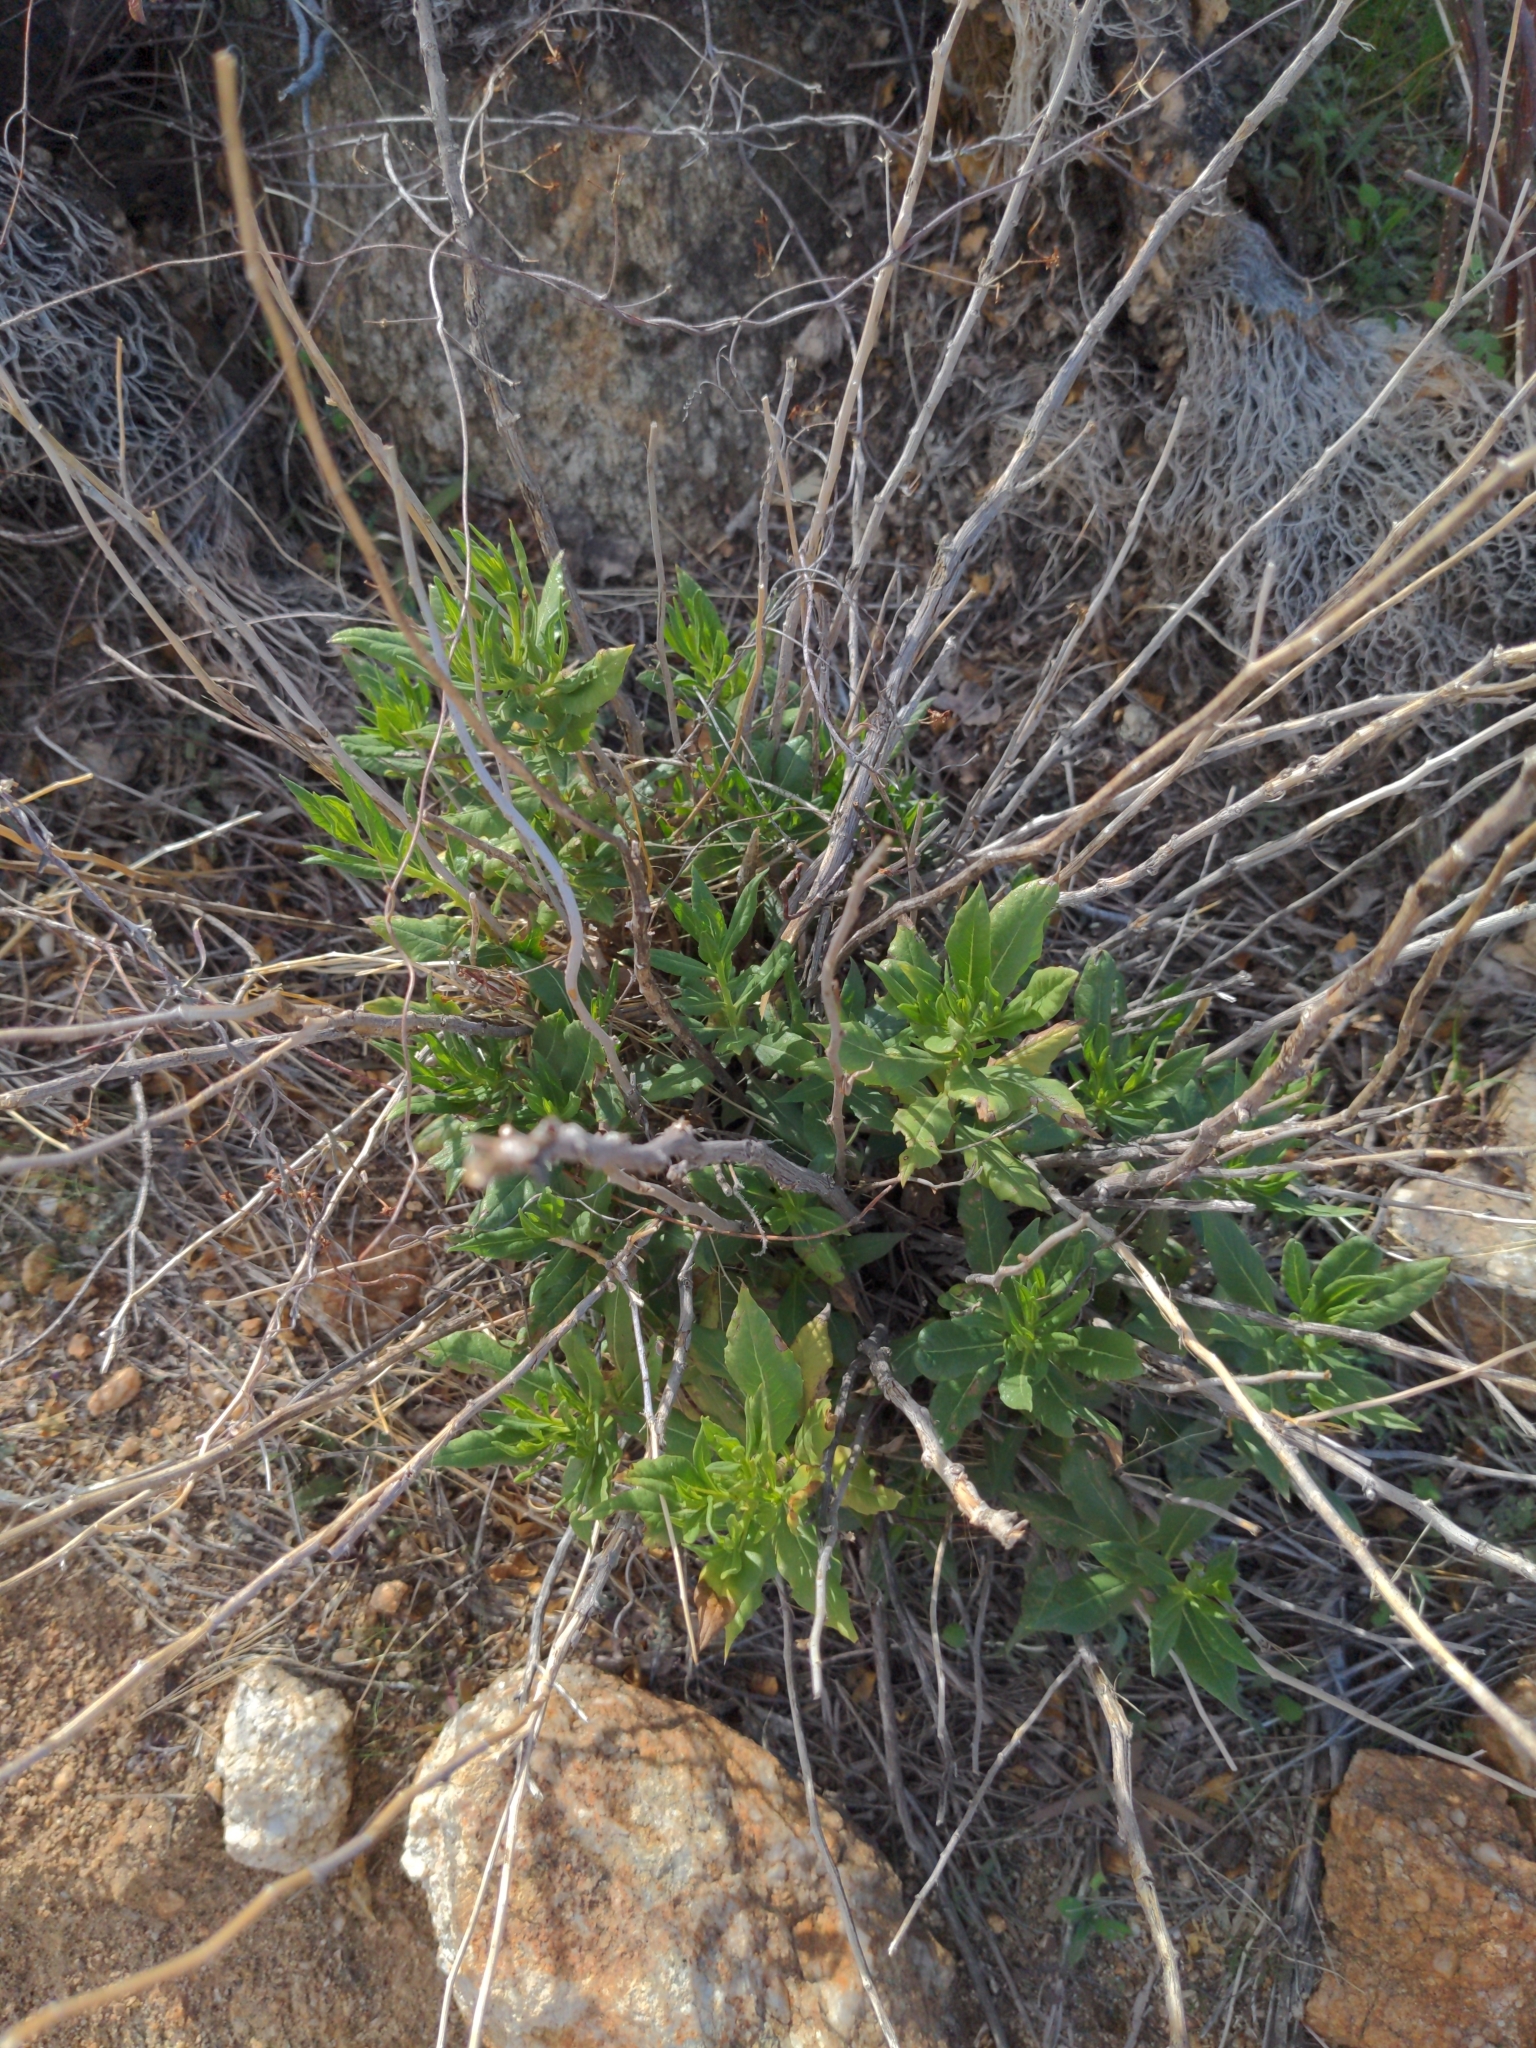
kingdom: Plantae
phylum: Tracheophyta
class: Magnoliopsida
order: Asterales
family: Asteraceae
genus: Trixis
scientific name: Trixis californica
